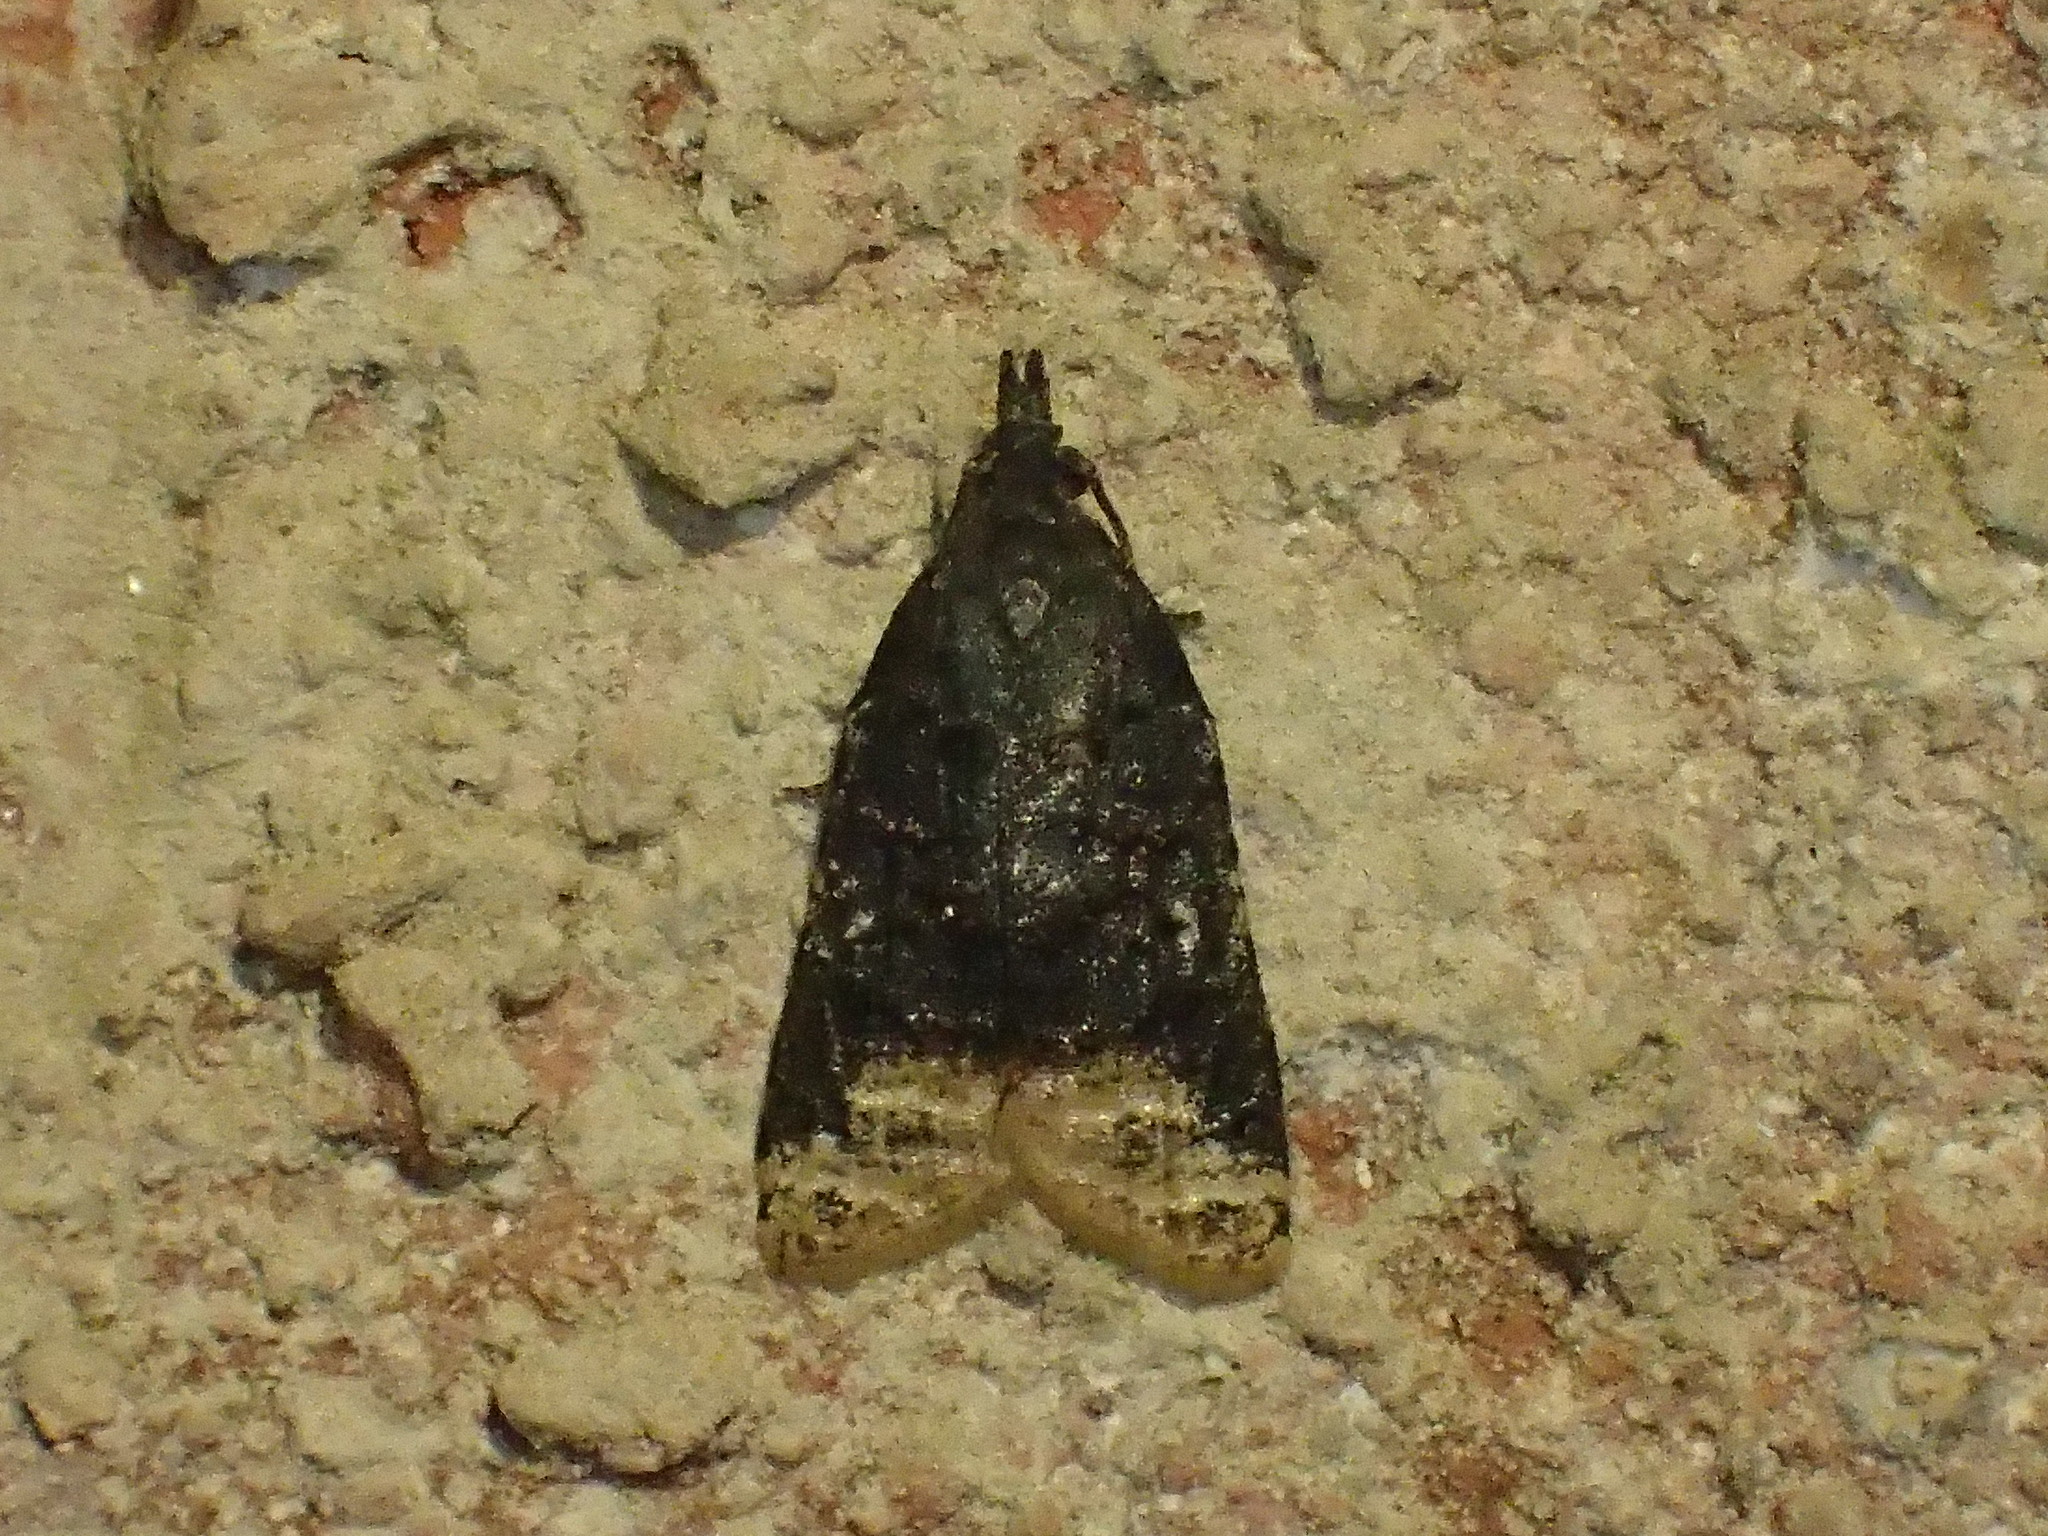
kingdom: Animalia
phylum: Arthropoda
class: Insecta
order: Lepidoptera
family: Tortricidae
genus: Platynota
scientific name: Platynota semiustana
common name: Singed platynota
